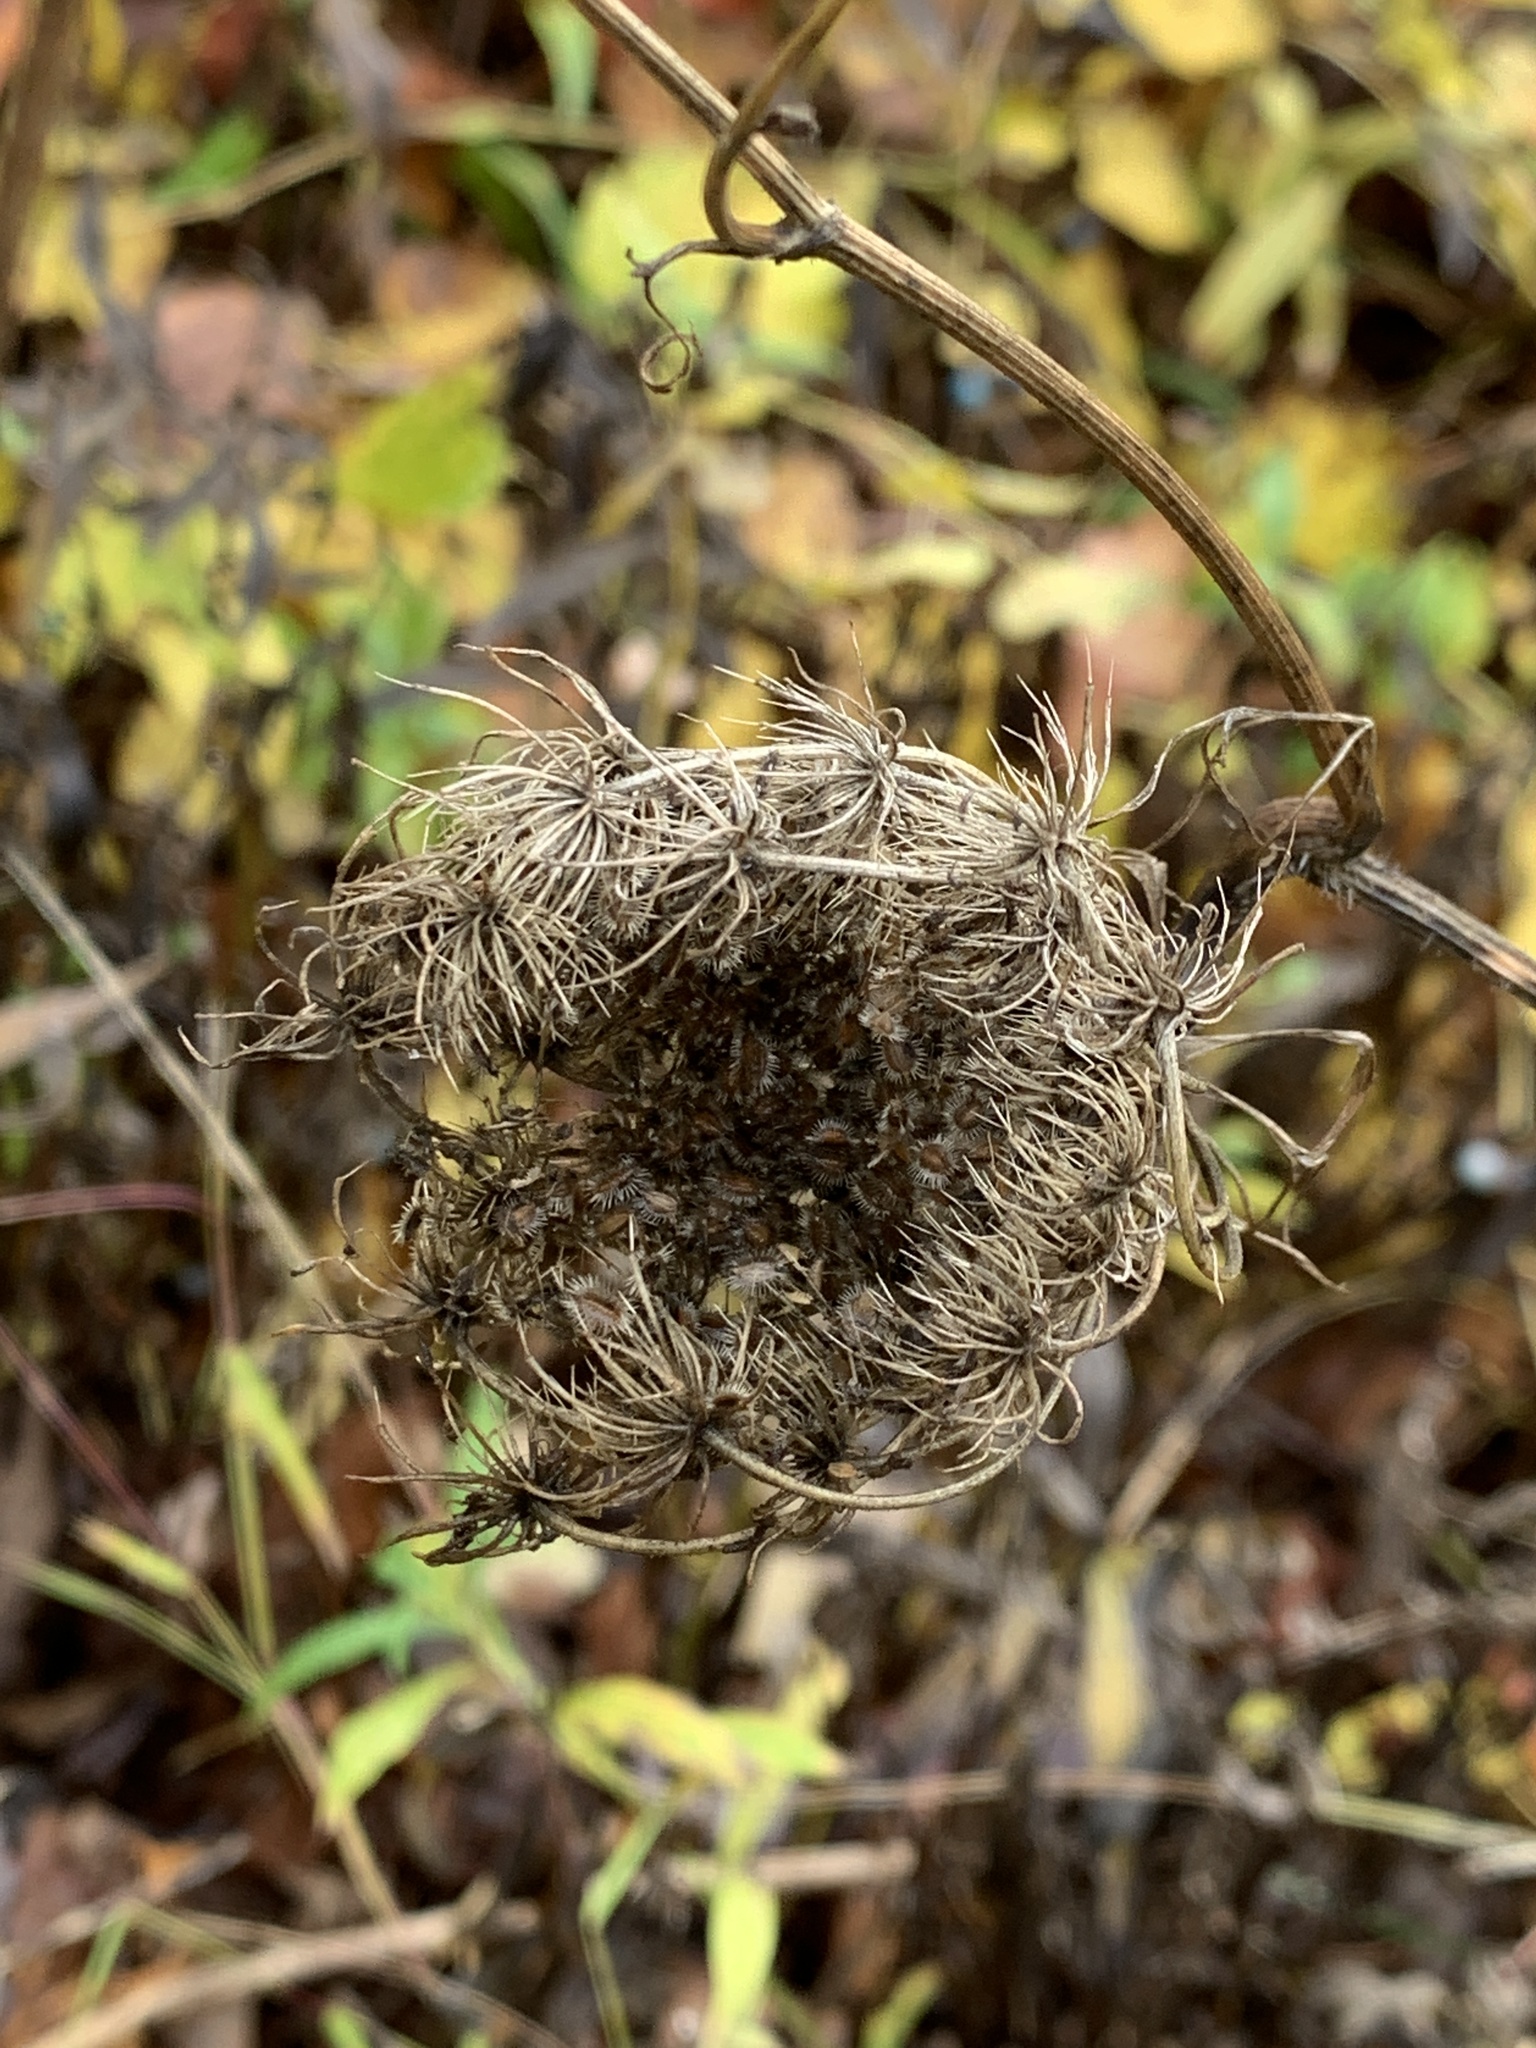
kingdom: Plantae
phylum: Tracheophyta
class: Magnoliopsida
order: Apiales
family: Apiaceae
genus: Daucus
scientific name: Daucus carota
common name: Wild carrot
